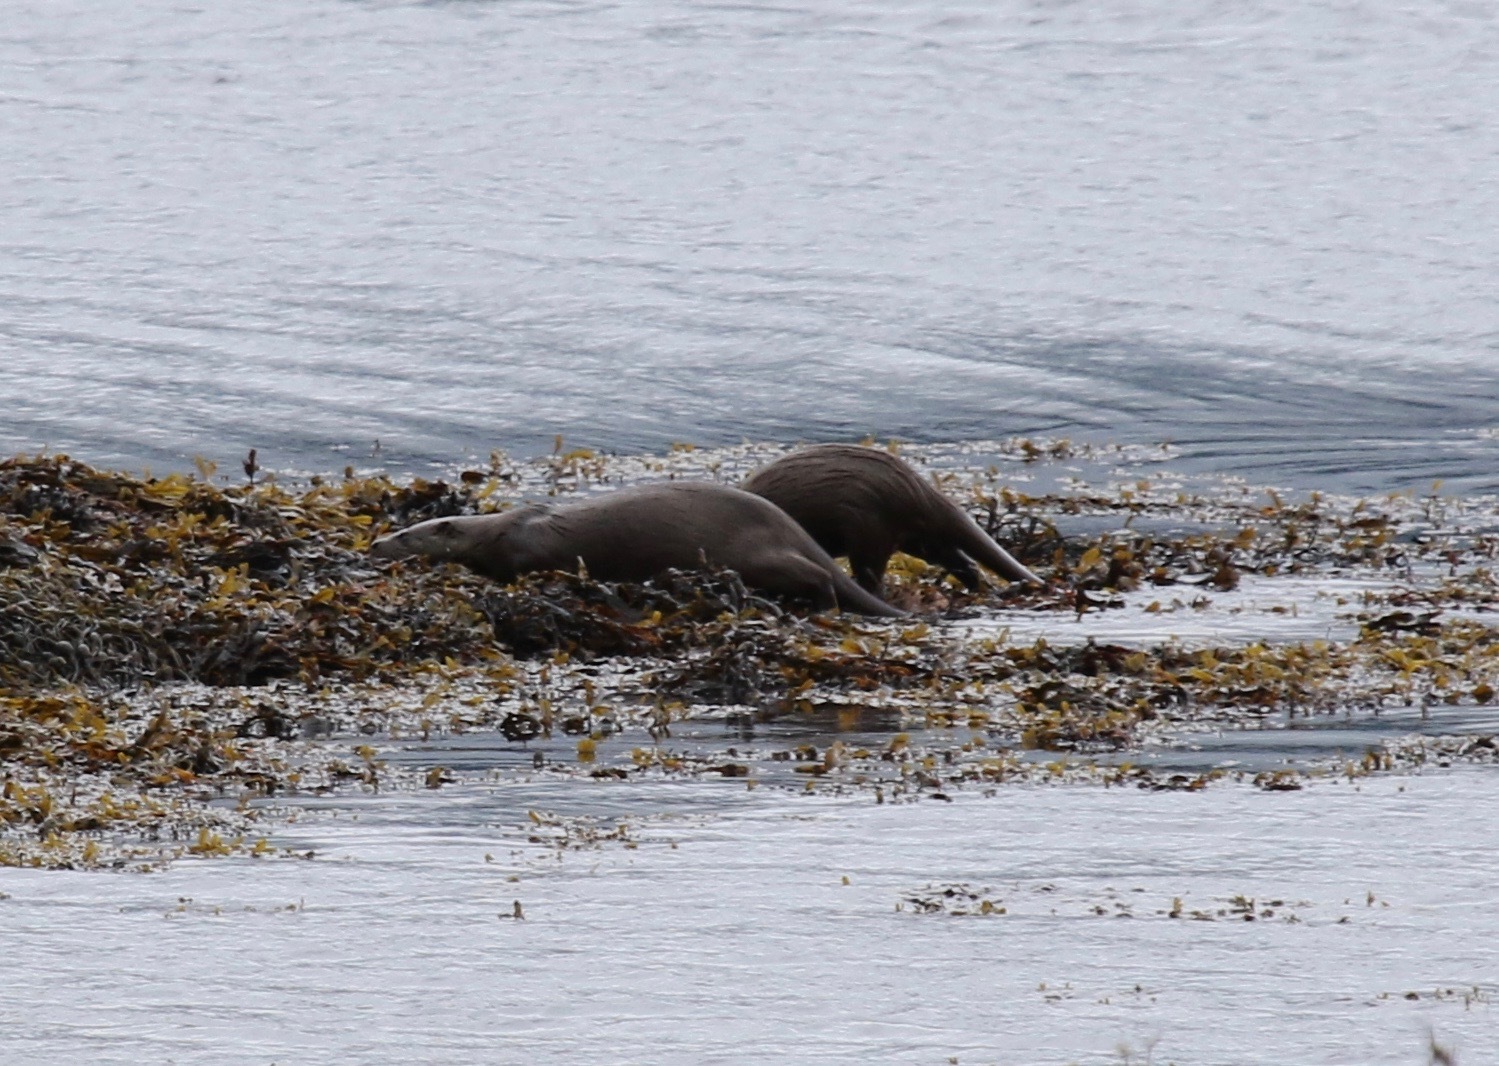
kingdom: Animalia
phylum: Chordata
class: Mammalia
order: Carnivora
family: Mustelidae
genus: Lutra
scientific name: Lutra lutra
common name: European otter
